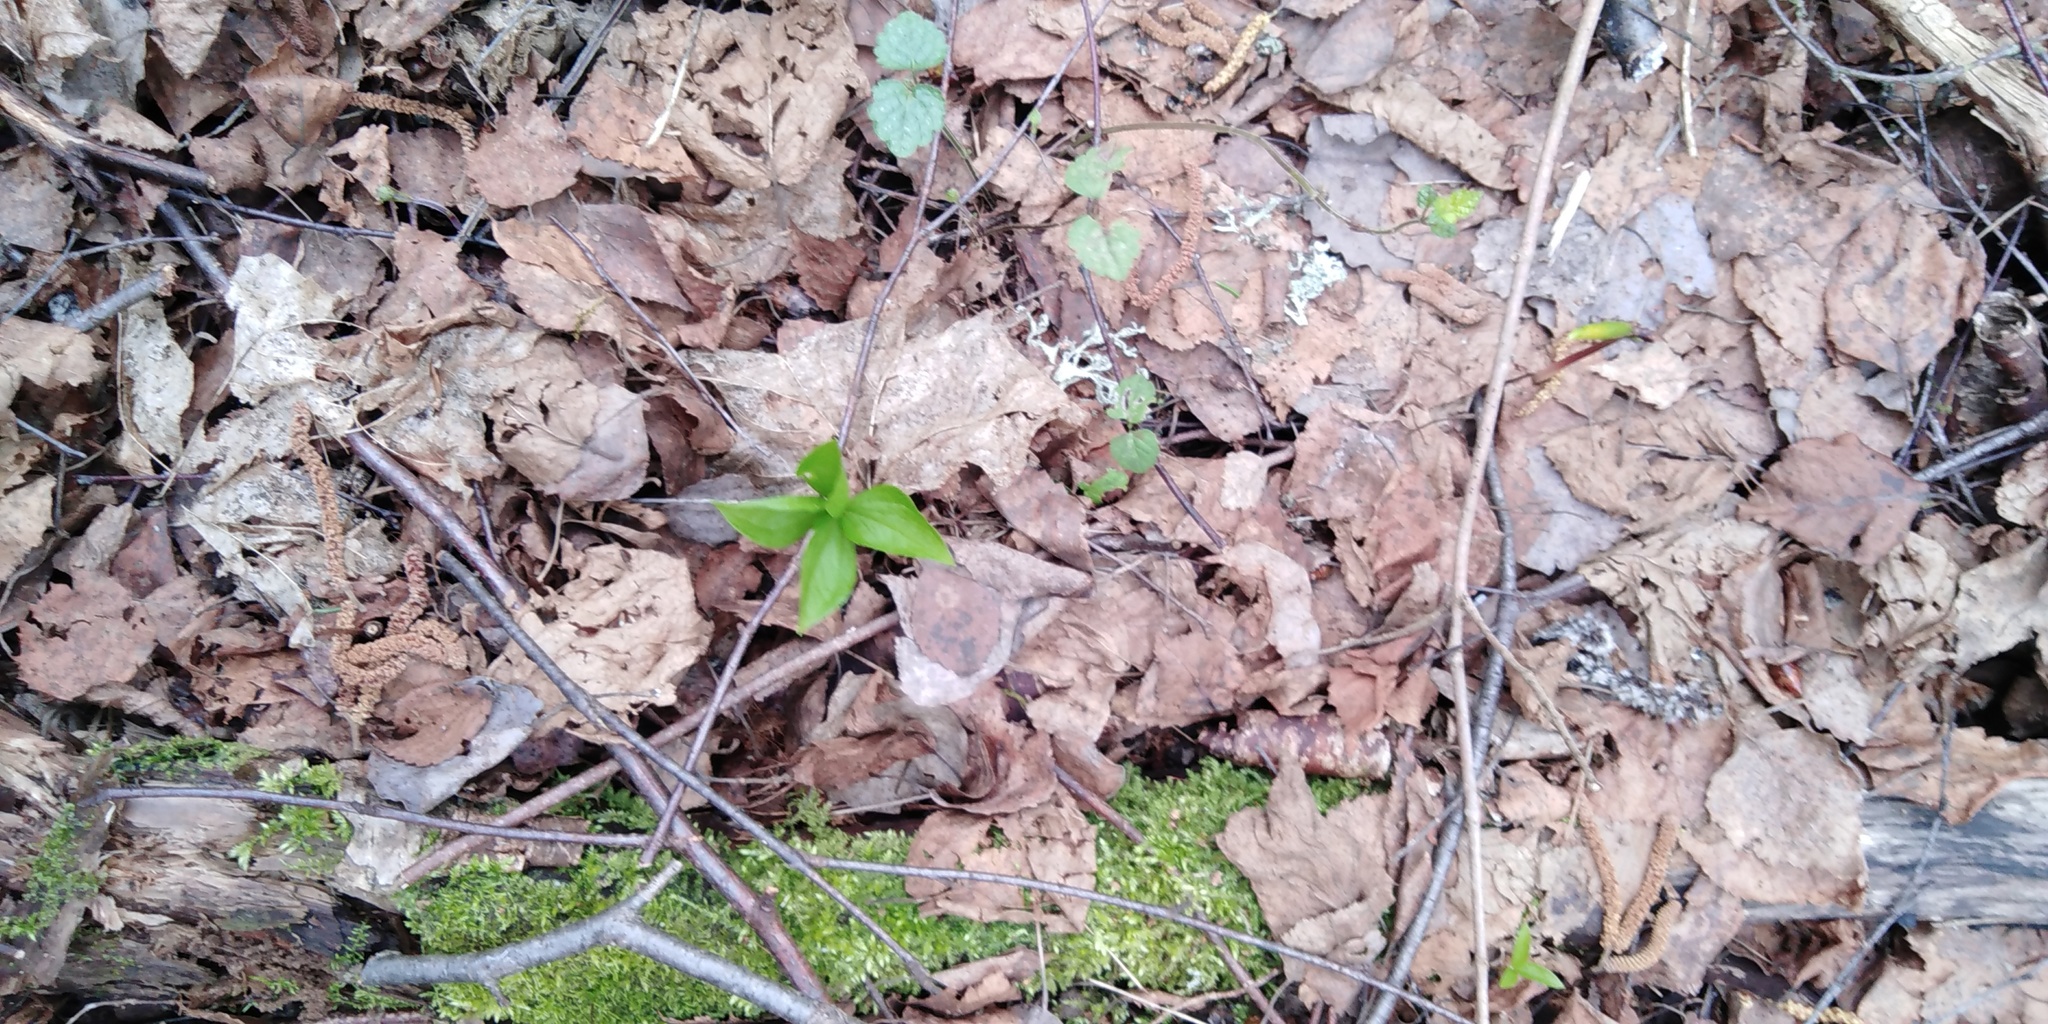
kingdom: Plantae
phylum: Tracheophyta
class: Liliopsida
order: Liliales
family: Melanthiaceae
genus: Paris
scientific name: Paris quadrifolia
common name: Herb-paris
